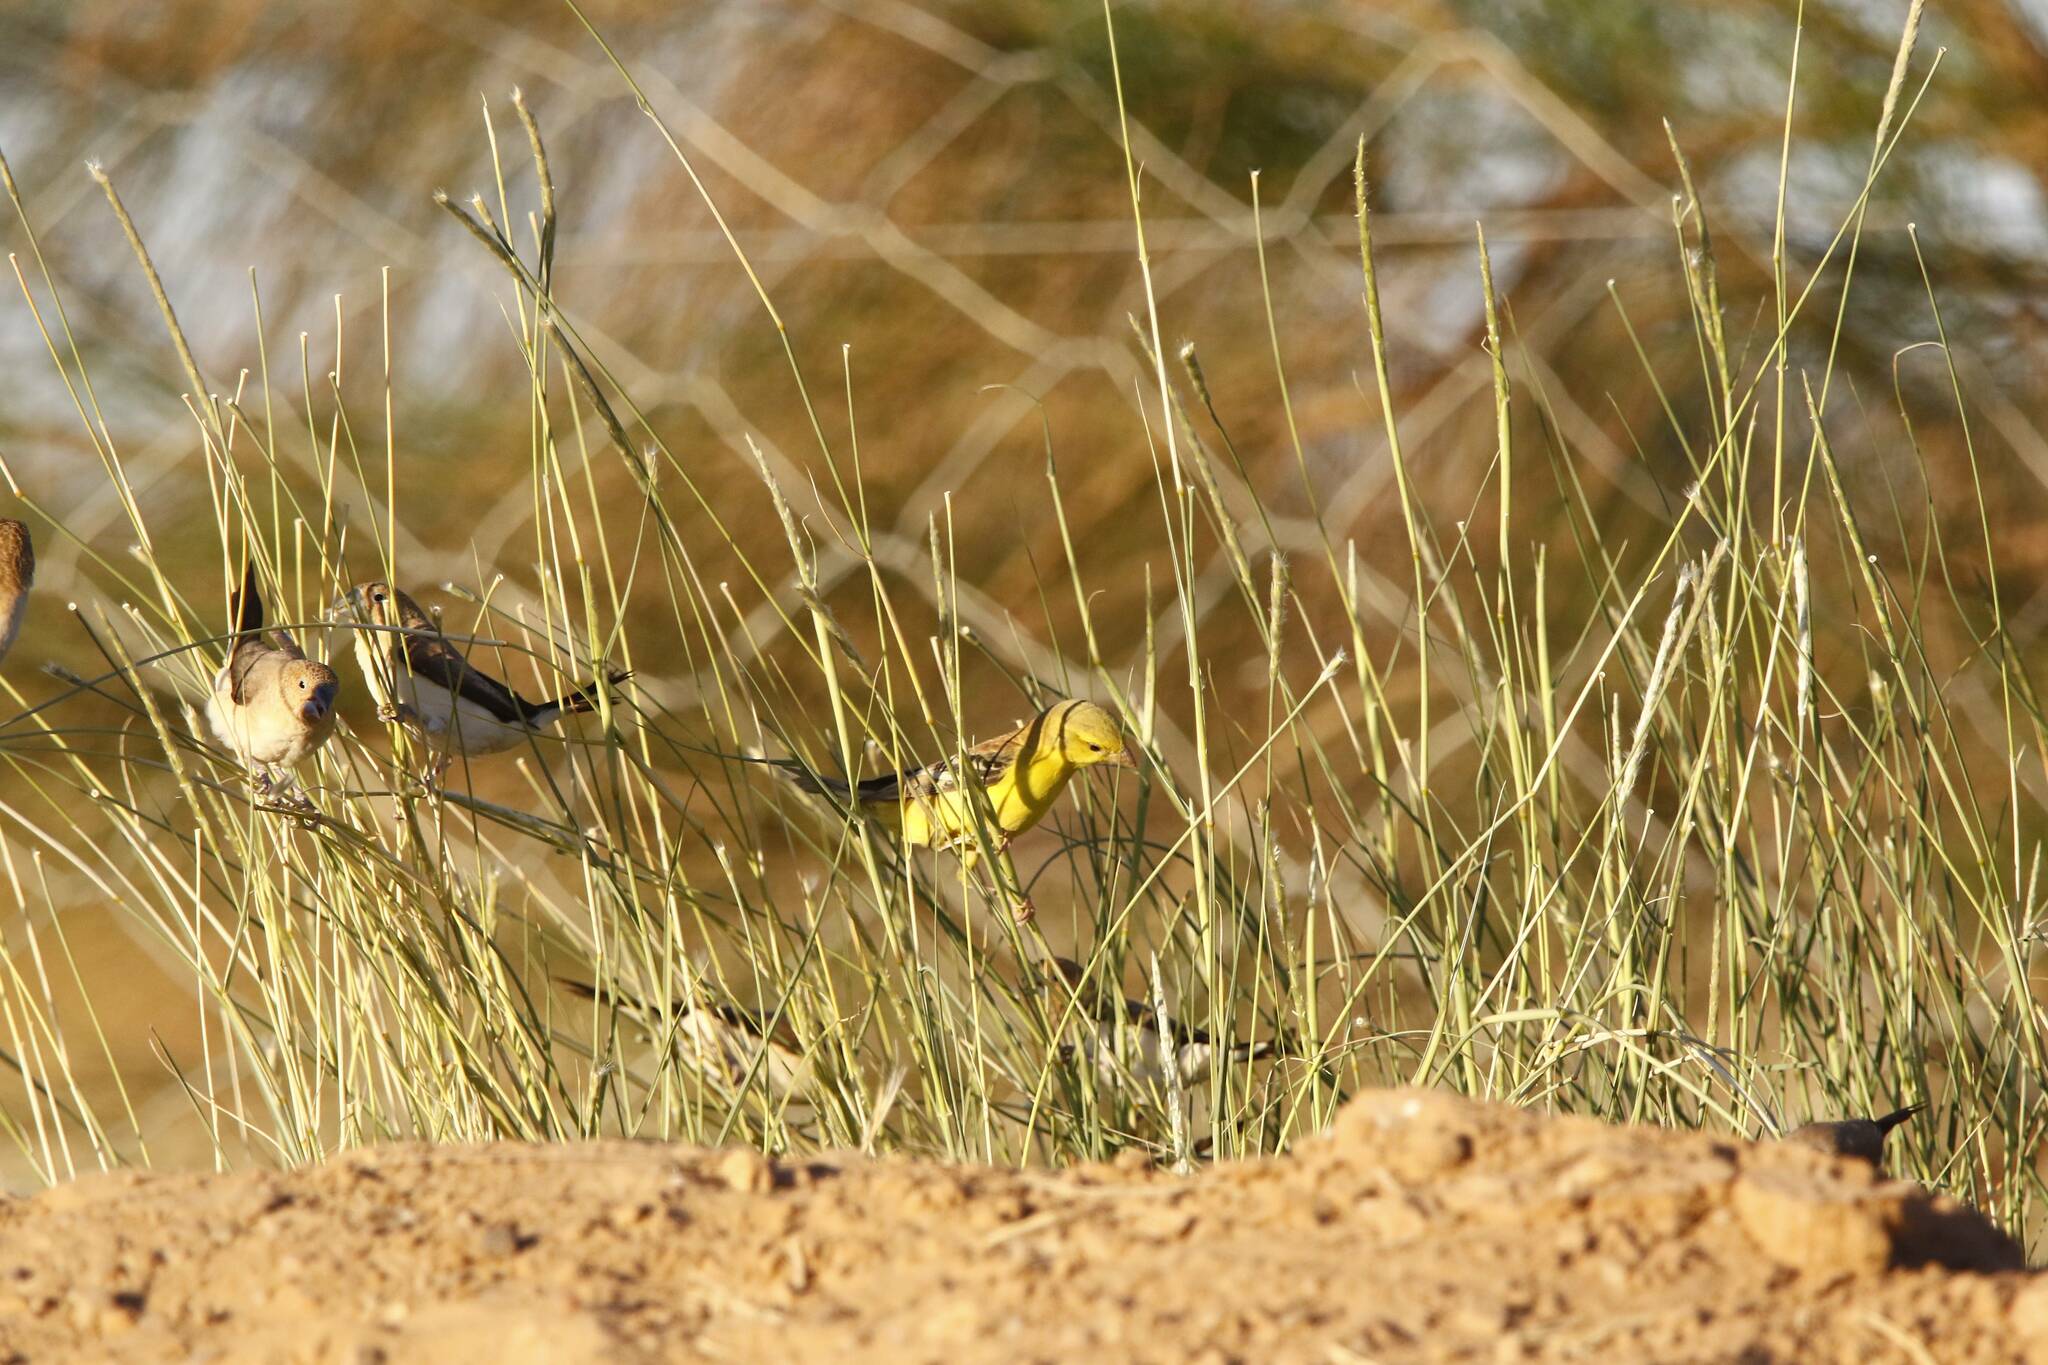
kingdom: Animalia
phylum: Chordata
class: Aves
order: Passeriformes
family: Passeridae
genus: Passer
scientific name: Passer luteus
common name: Sudan golden sparrow
